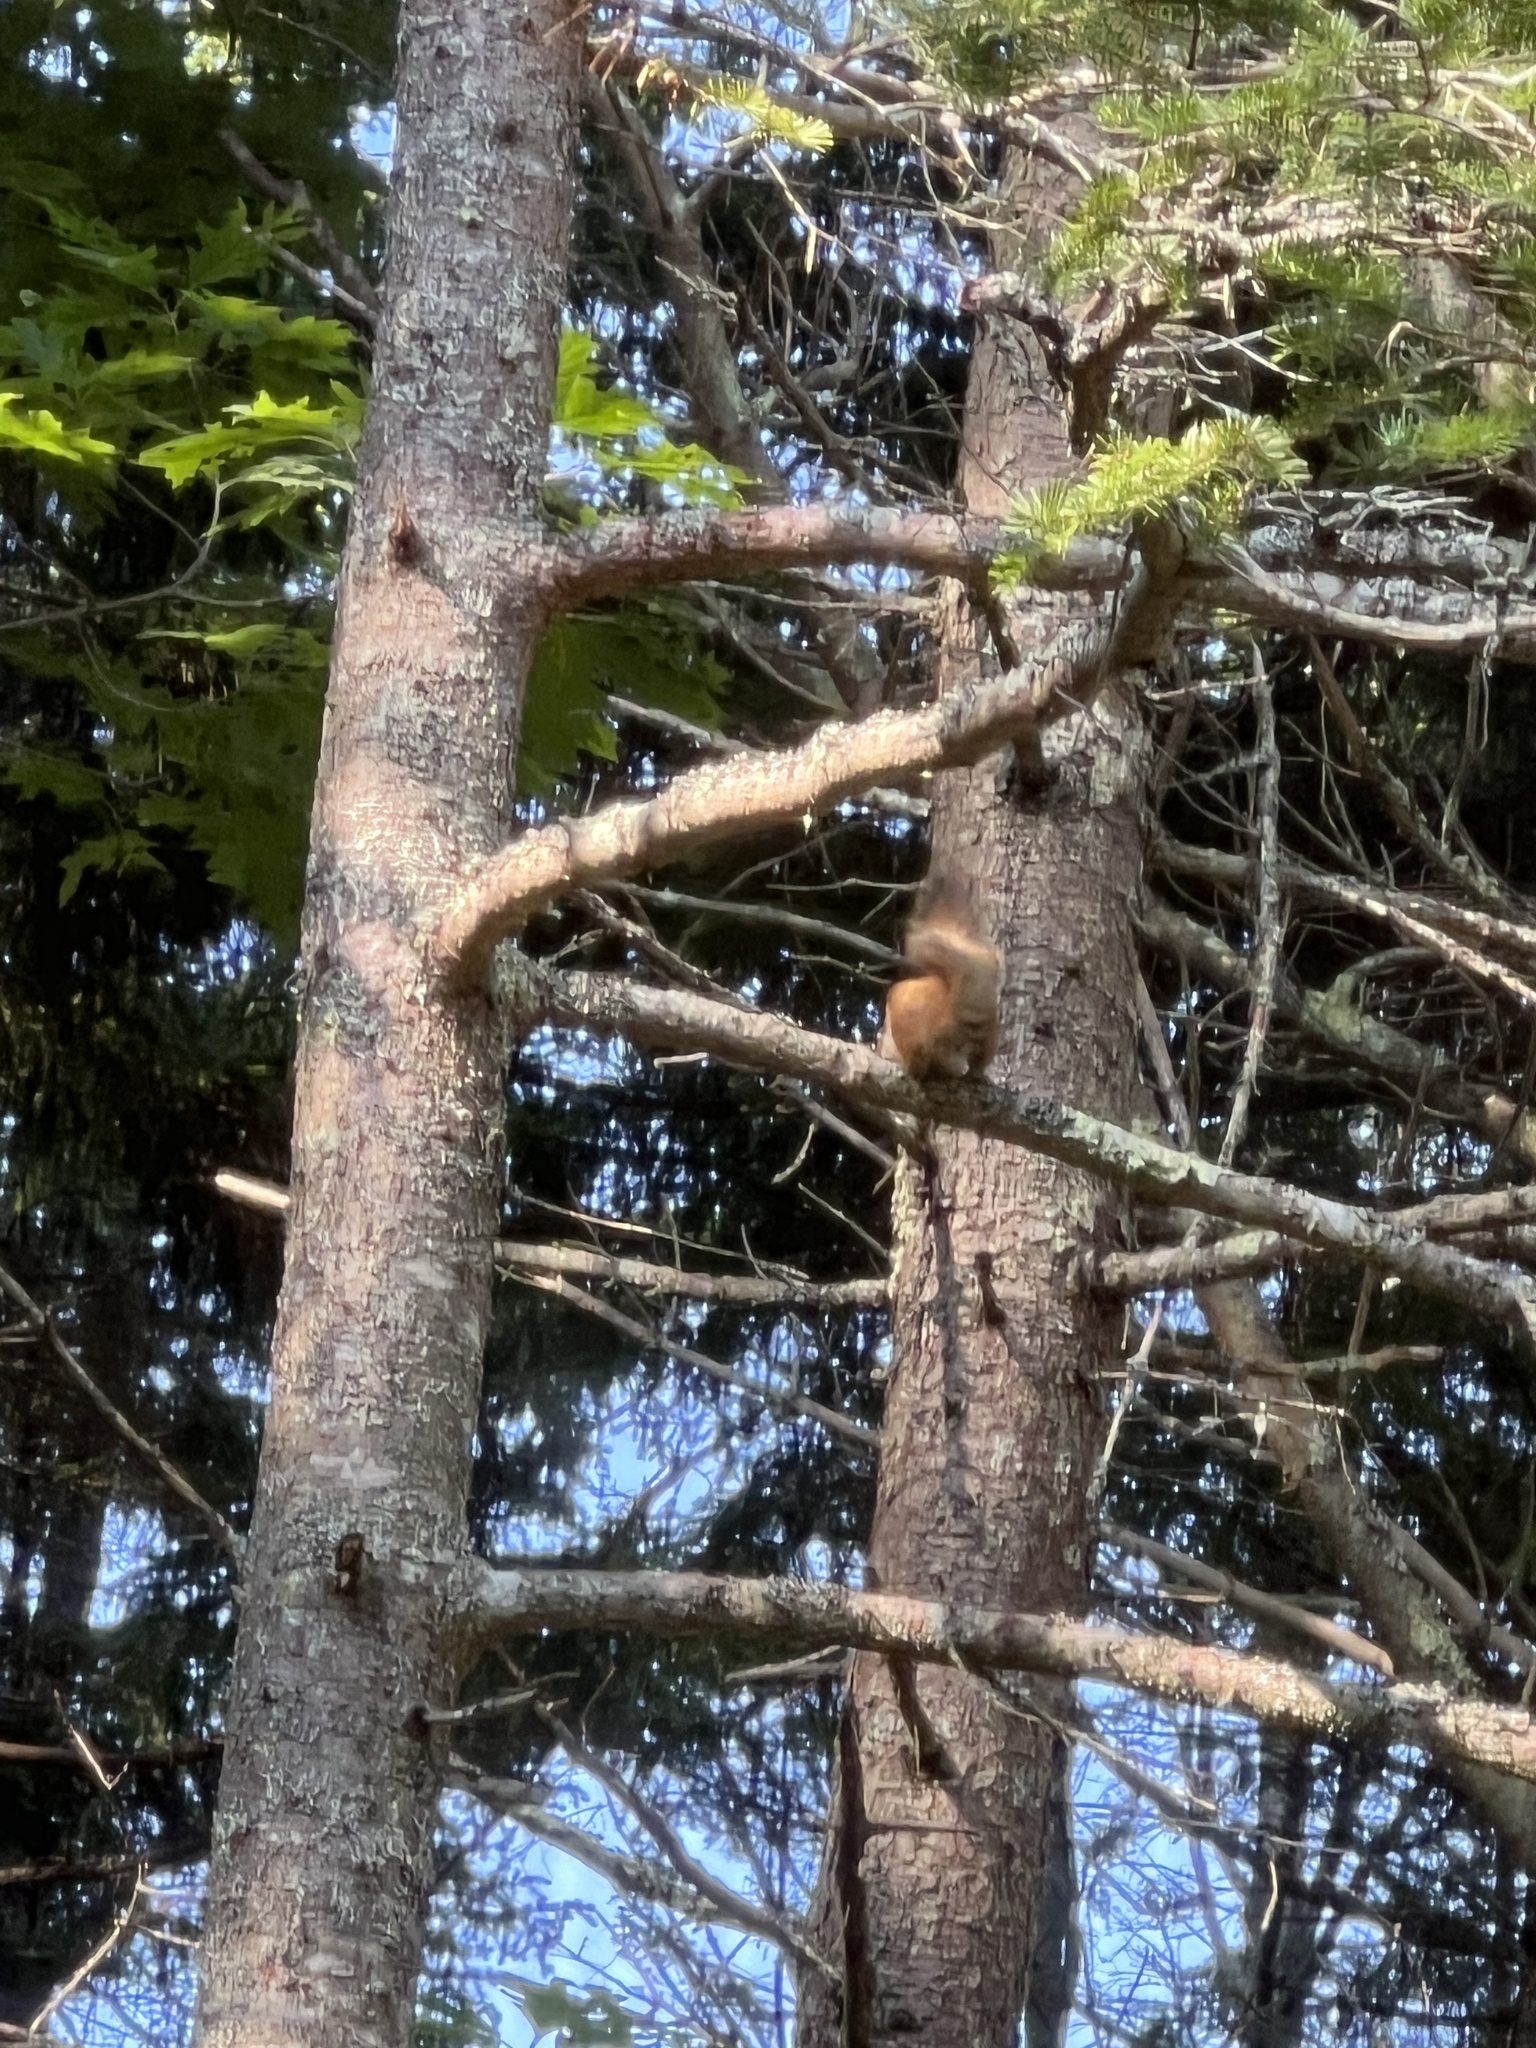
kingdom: Animalia
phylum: Chordata
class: Mammalia
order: Rodentia
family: Sciuridae
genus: Tamiasciurus
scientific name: Tamiasciurus hudsonicus
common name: Red squirrel
